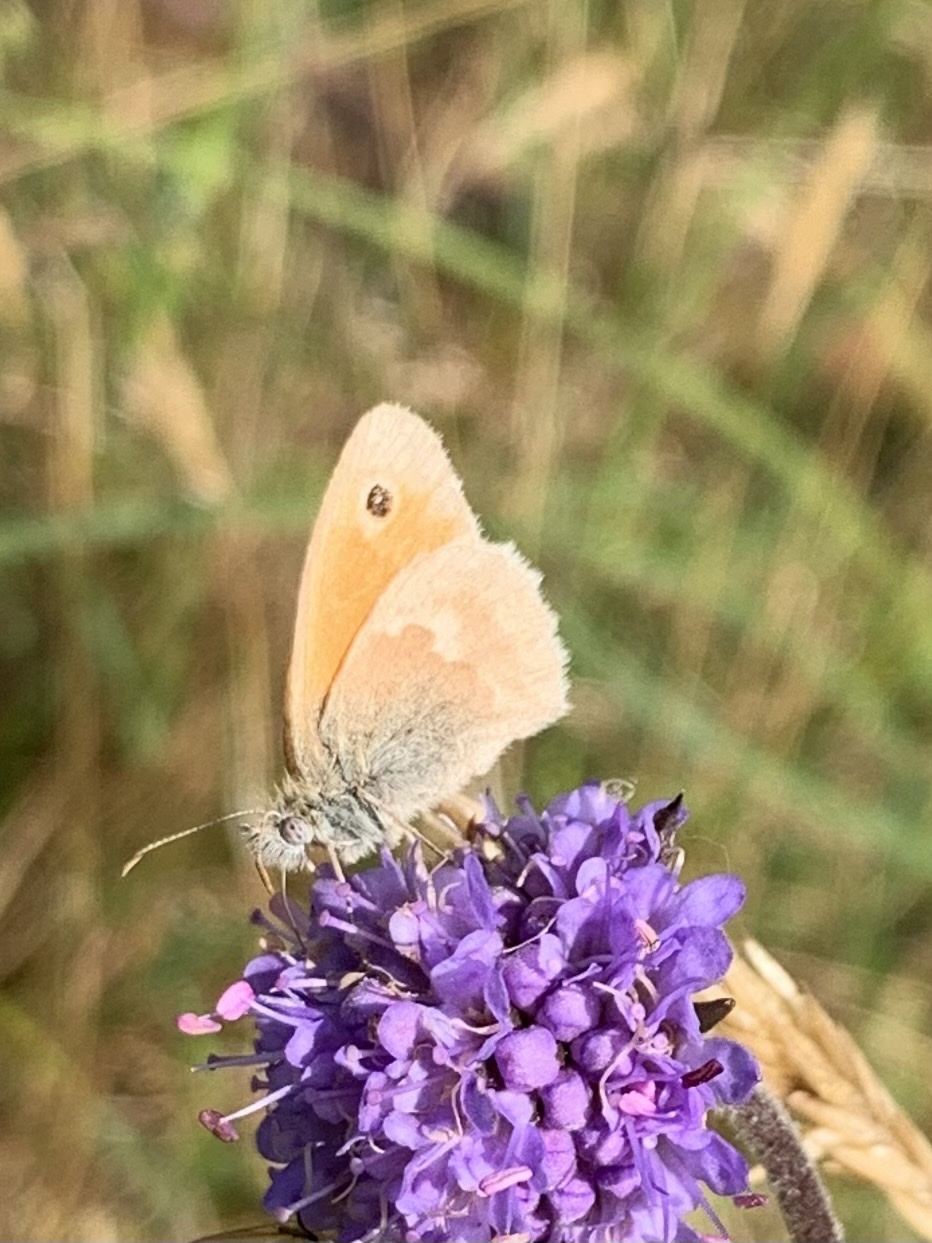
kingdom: Animalia
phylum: Arthropoda
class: Insecta
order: Lepidoptera
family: Nymphalidae
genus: Coenonympha
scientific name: Coenonympha pamphilus
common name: Small heath
